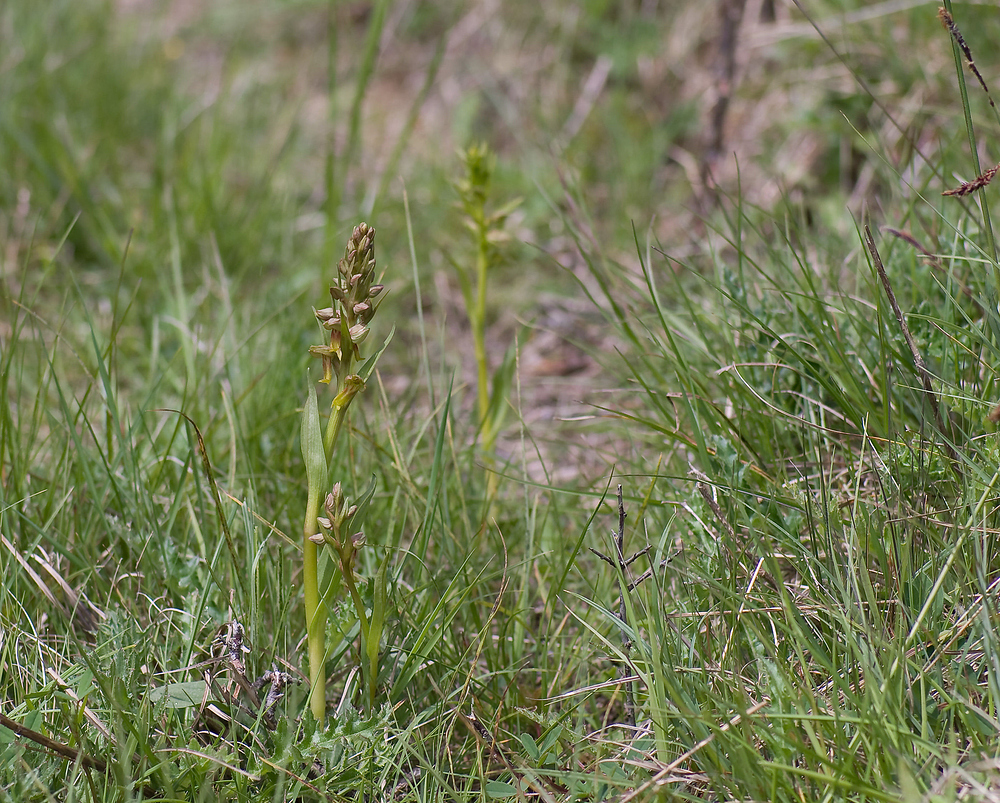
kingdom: Plantae
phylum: Tracheophyta
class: Liliopsida
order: Asparagales
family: Orchidaceae
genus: Dactylorhiza
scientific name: Dactylorhiza viridis
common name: Longbract frog orchid
